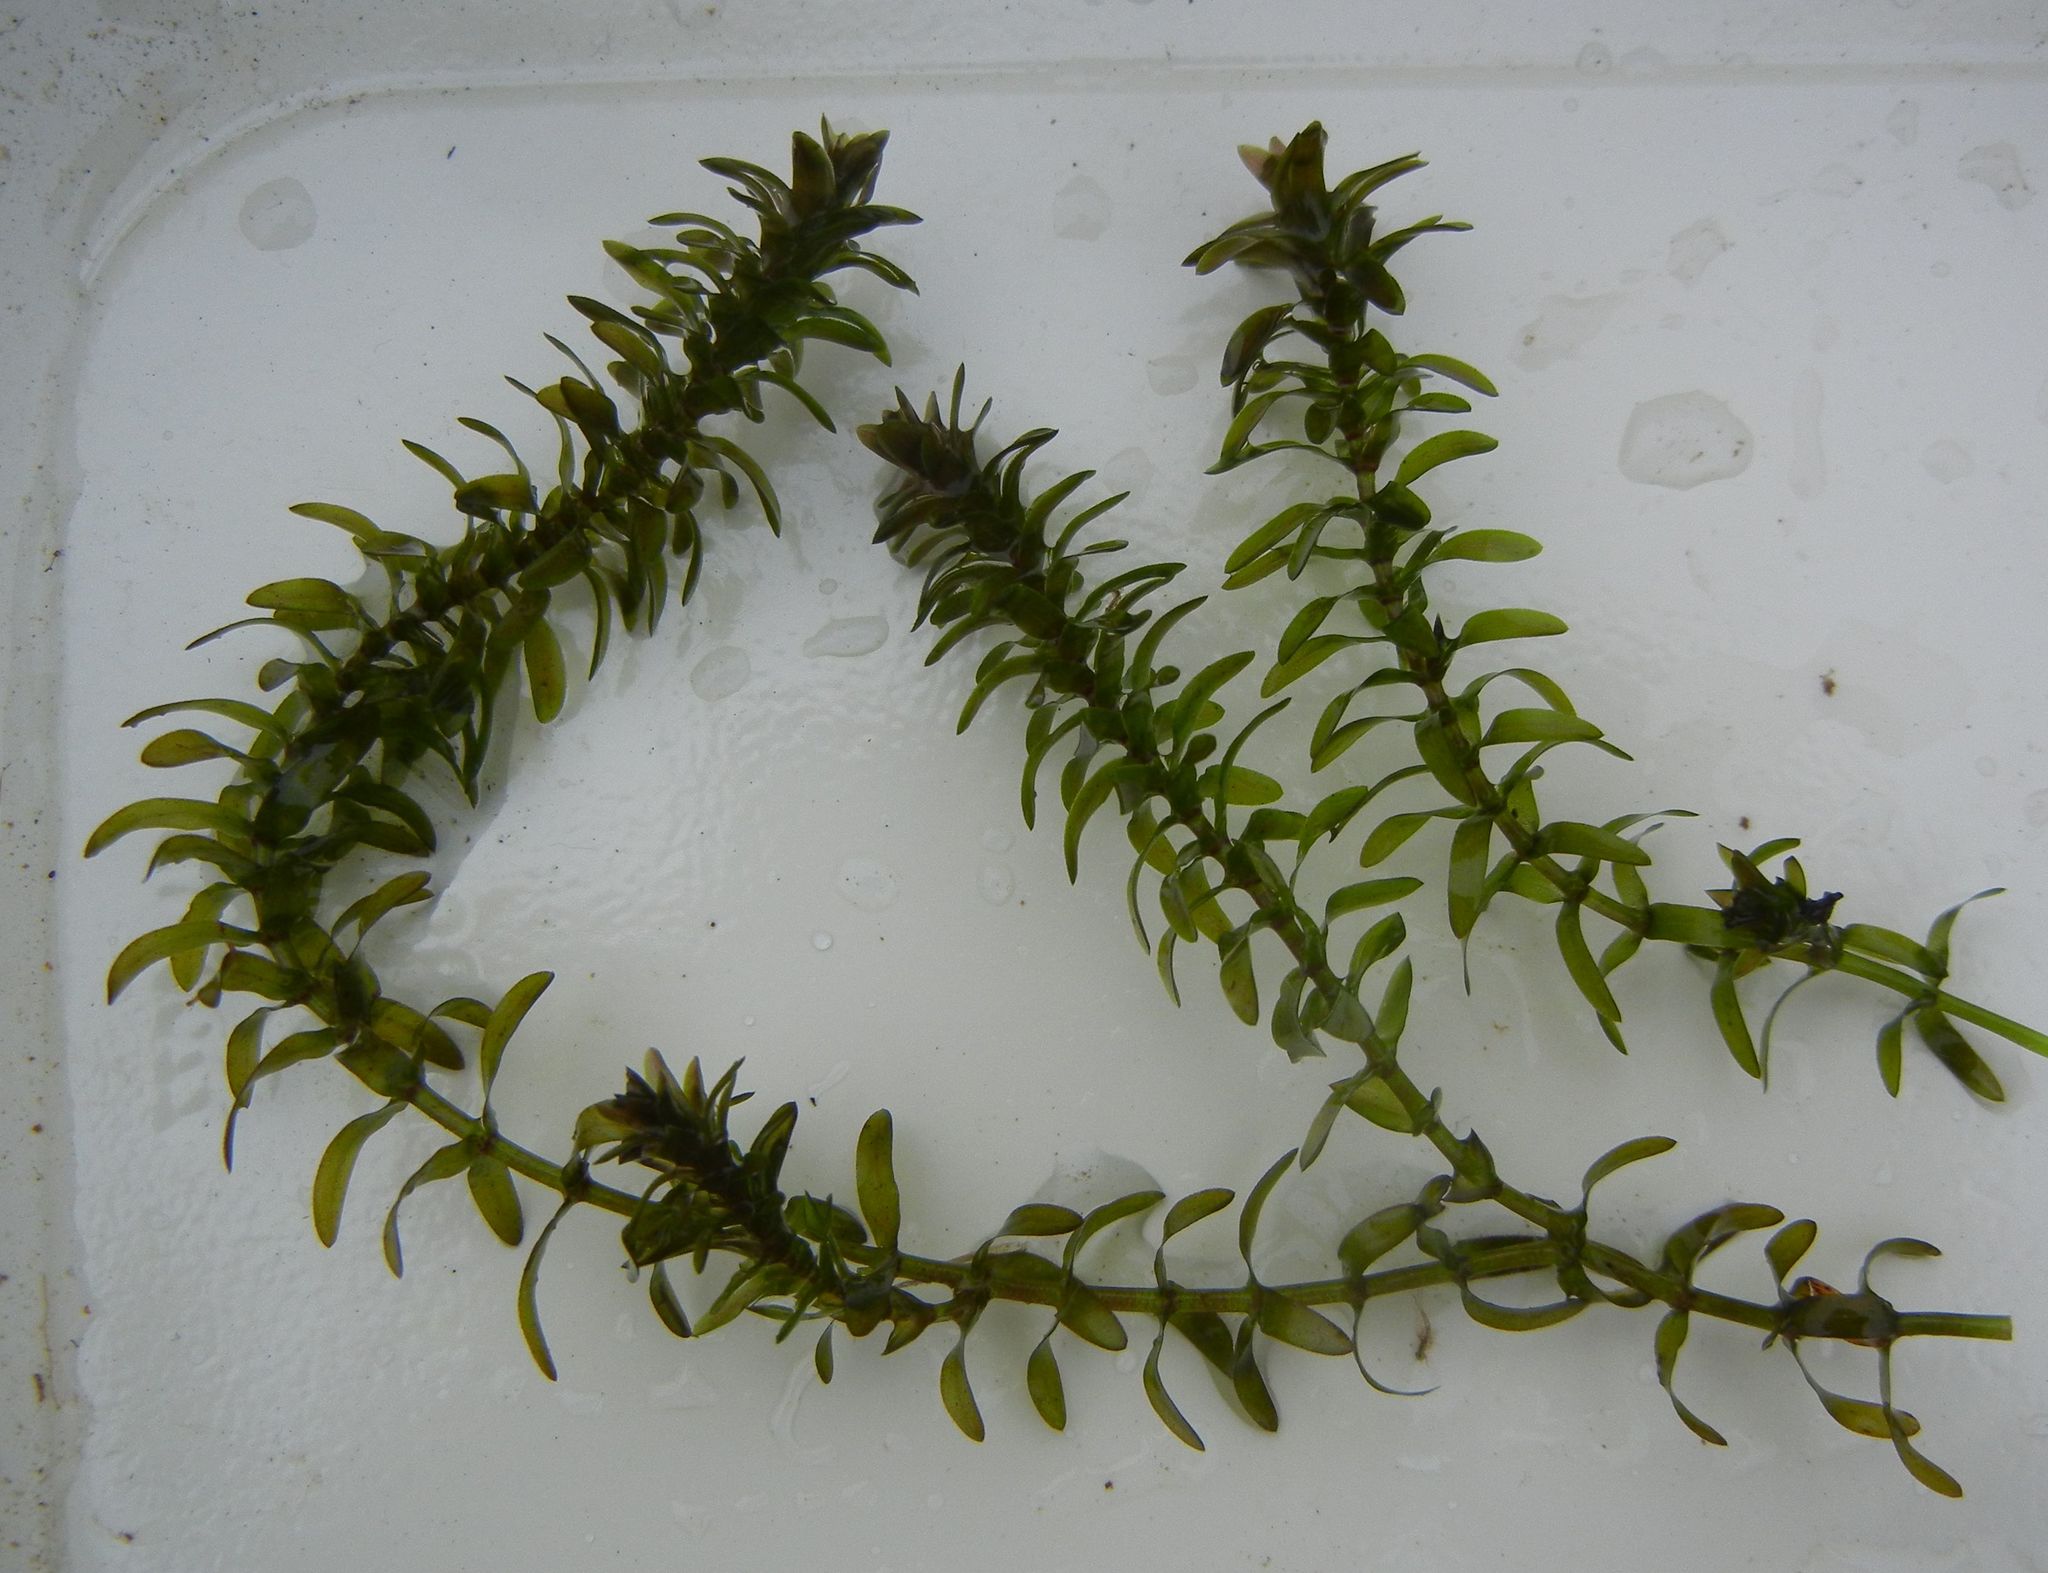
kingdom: Plantae
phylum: Tracheophyta
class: Liliopsida
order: Alismatales
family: Hydrocharitaceae
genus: Elodea
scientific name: Elodea canadensis
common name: Canadian waterweed
